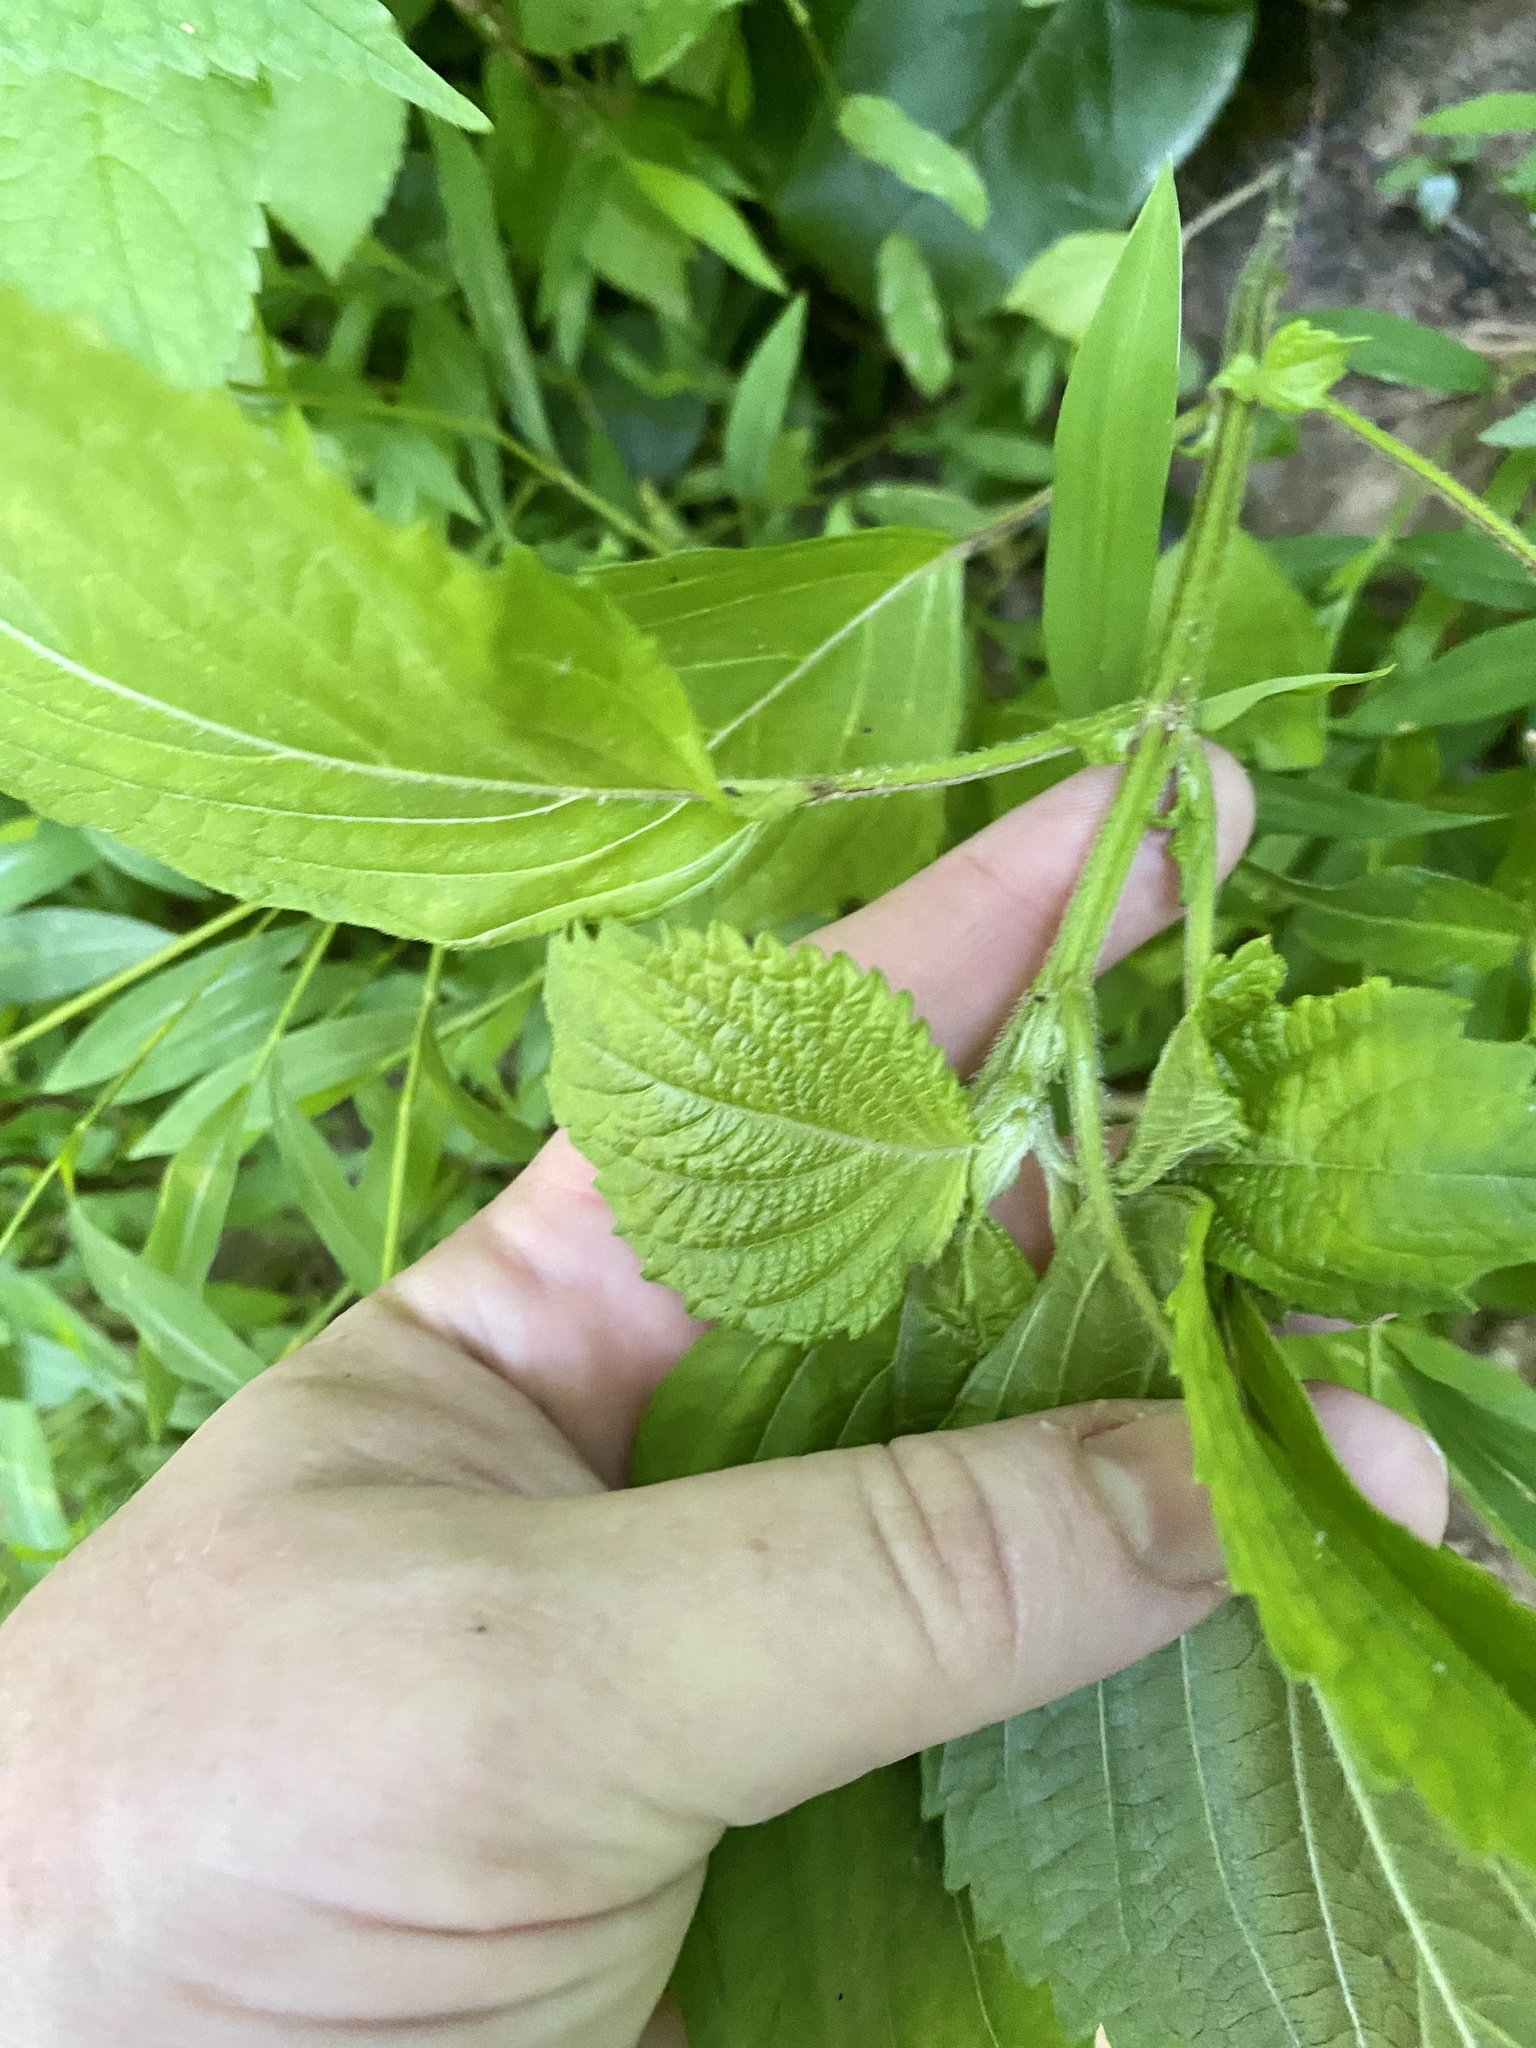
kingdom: Plantae
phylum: Tracheophyta
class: Magnoliopsida
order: Lamiales
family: Lamiaceae
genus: Perilla
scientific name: Perilla frutescens
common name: Perilla
